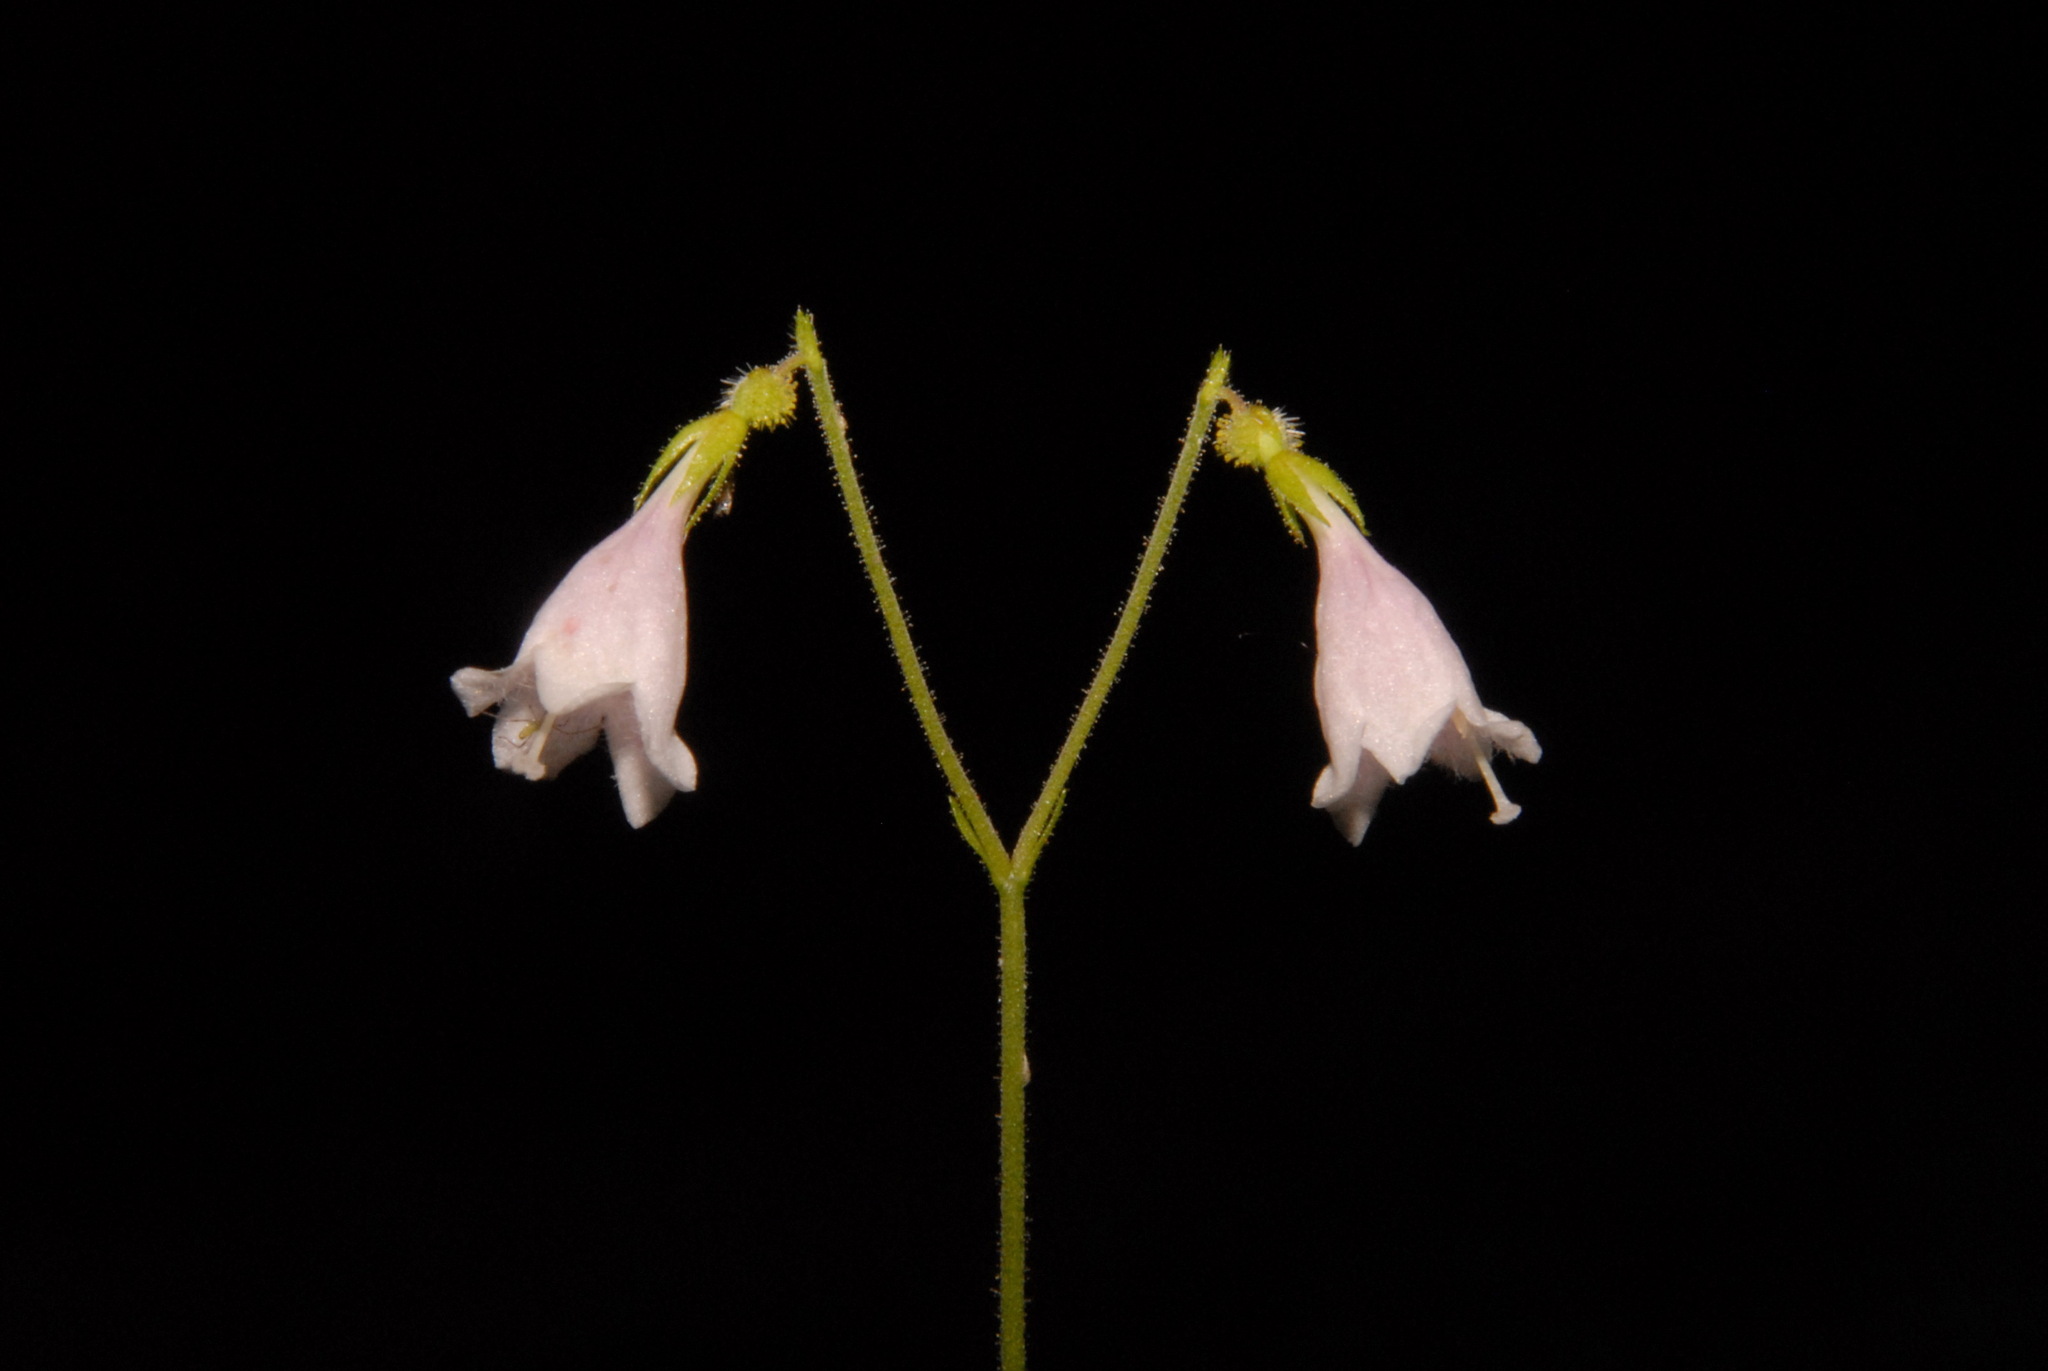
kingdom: Plantae
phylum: Tracheophyta
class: Magnoliopsida
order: Dipsacales
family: Caprifoliaceae
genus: Linnaea
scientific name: Linnaea borealis
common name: Twinflower
